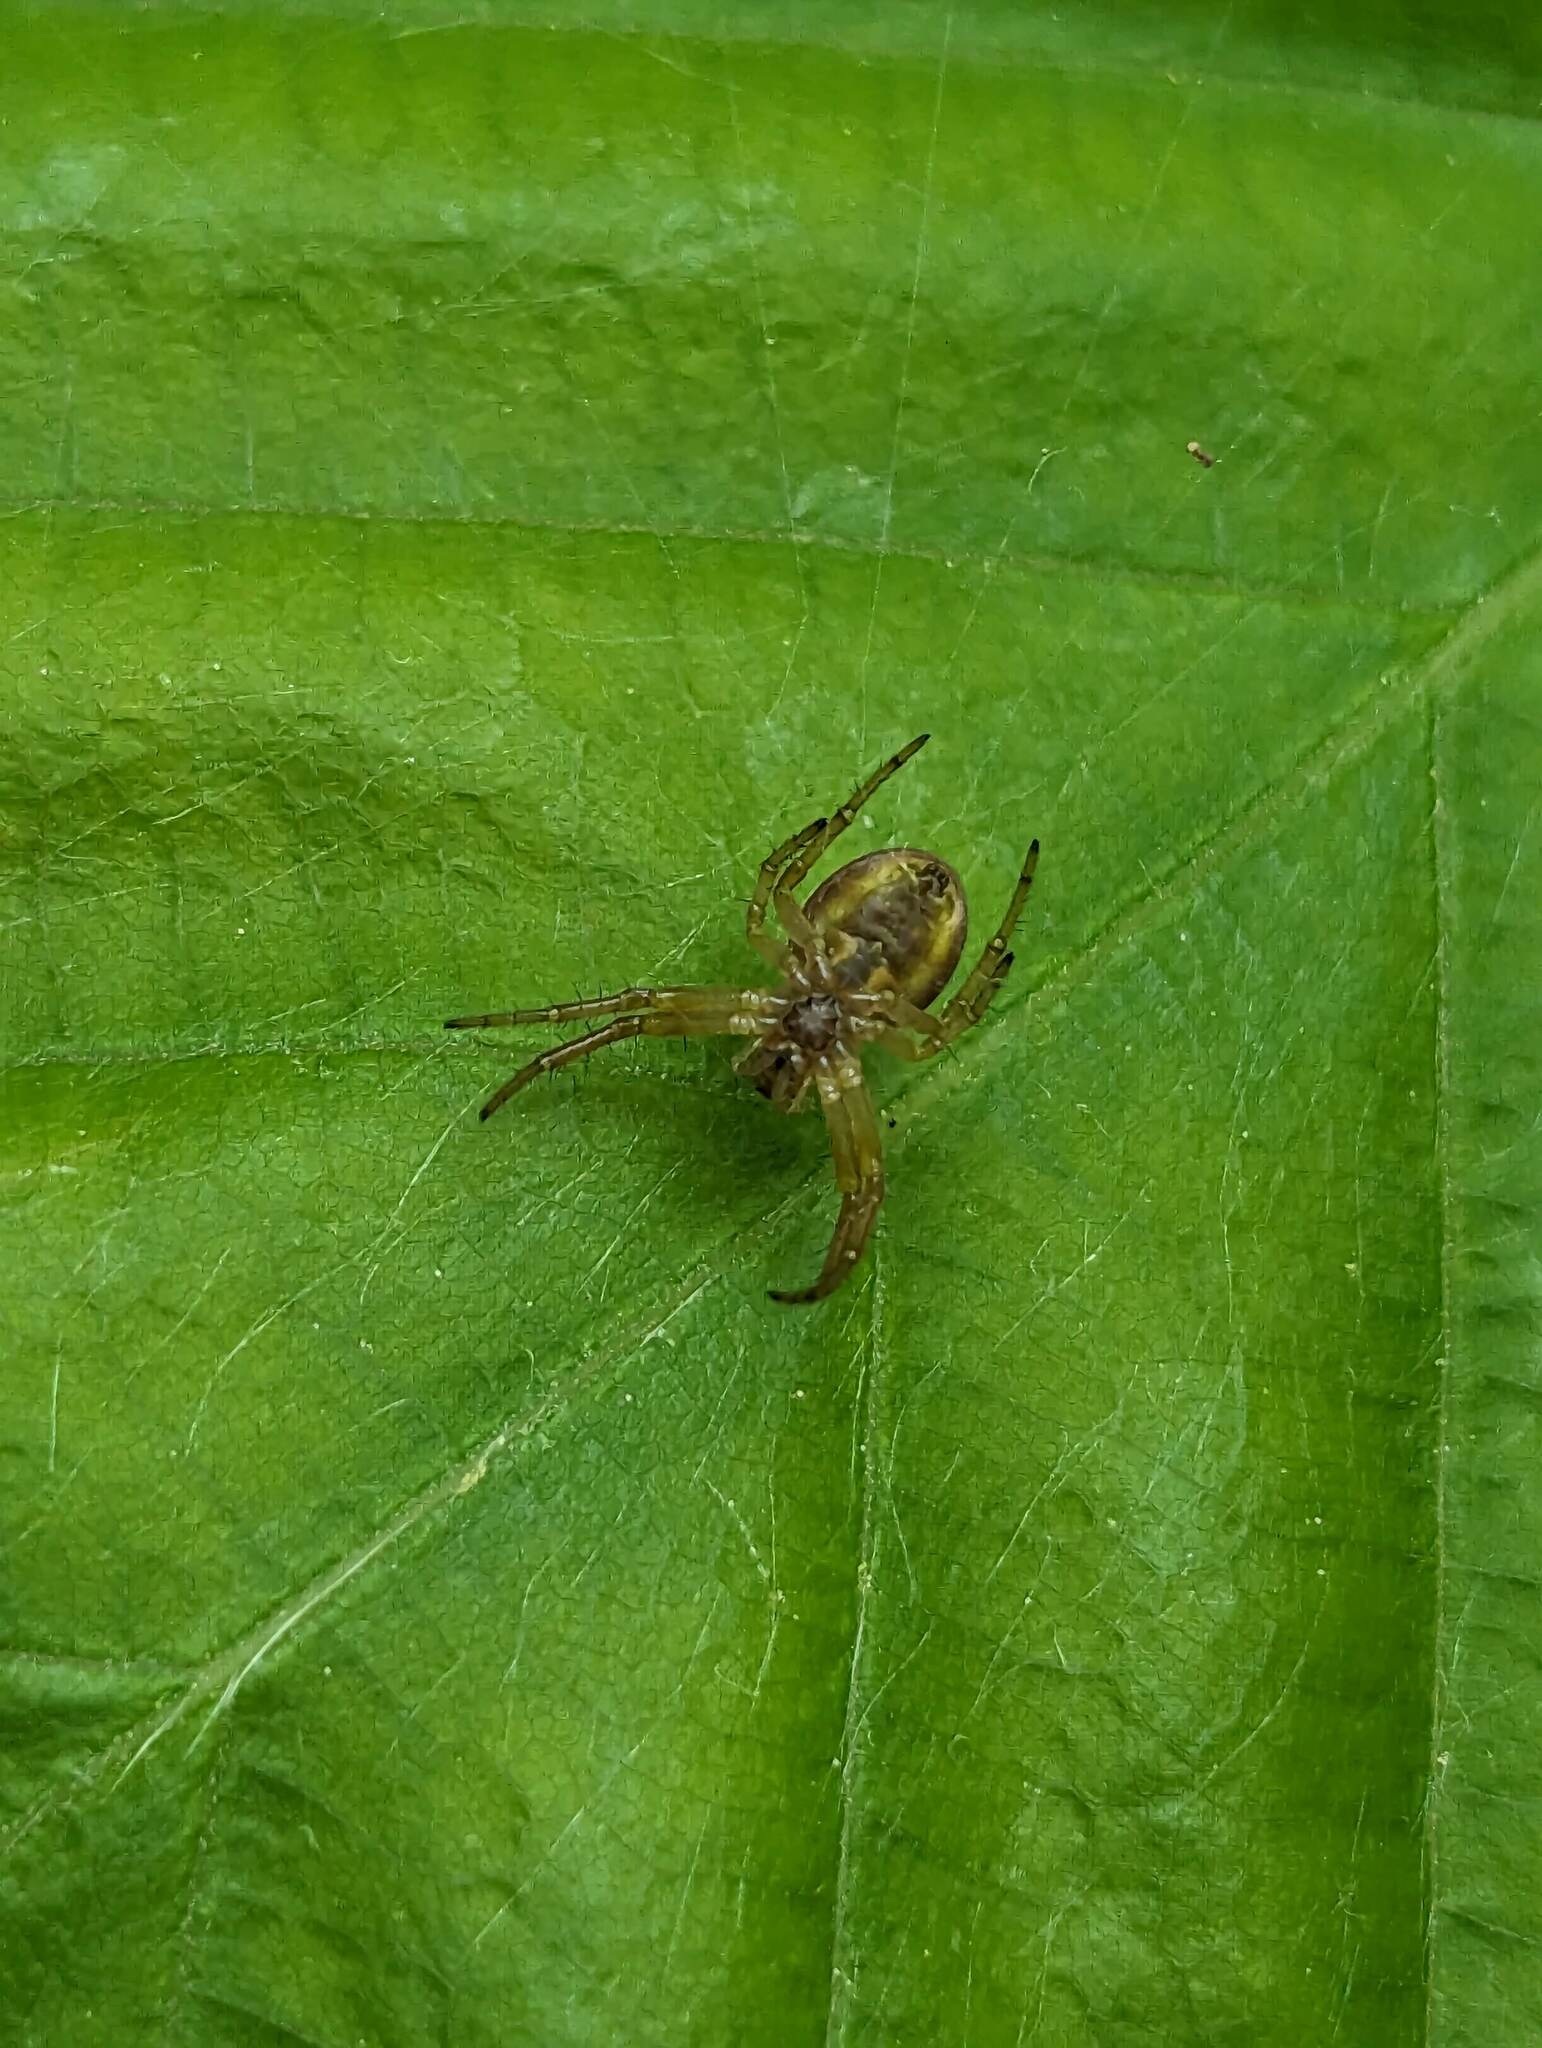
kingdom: Animalia
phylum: Arthropoda
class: Arachnida
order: Araneae
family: Araneidae
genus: Araniella
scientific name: Araniella displicata
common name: Sixspotted orb weaver
